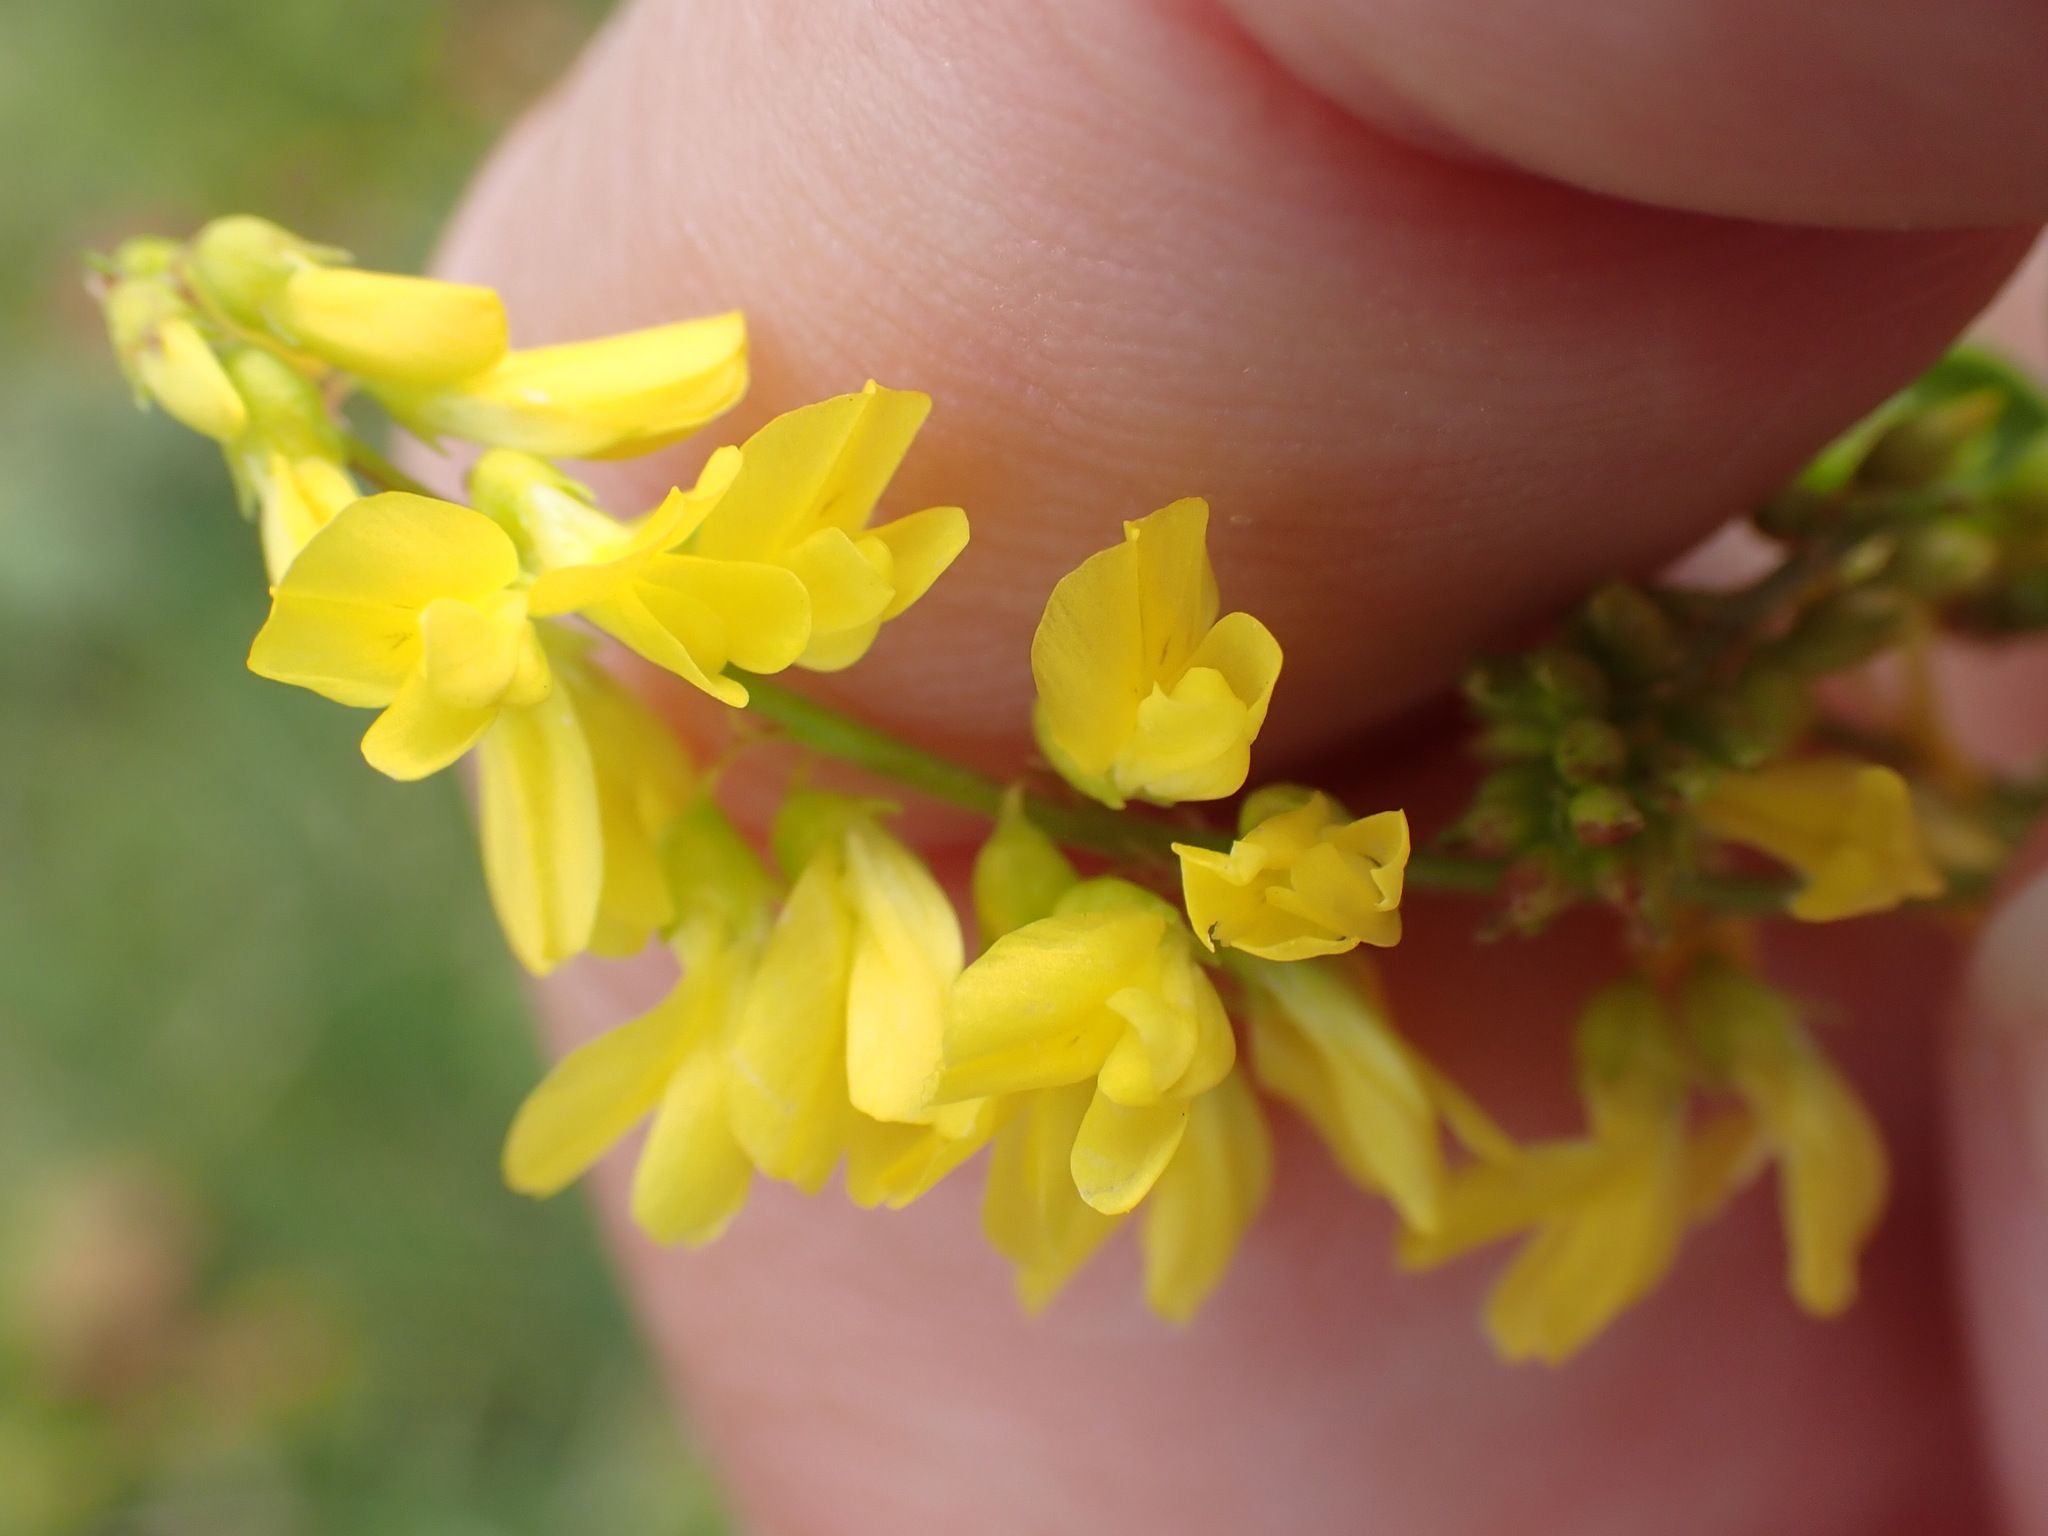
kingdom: Plantae
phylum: Tracheophyta
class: Magnoliopsida
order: Fabales
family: Fabaceae
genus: Melilotus
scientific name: Melilotus officinalis
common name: Sweetclover
